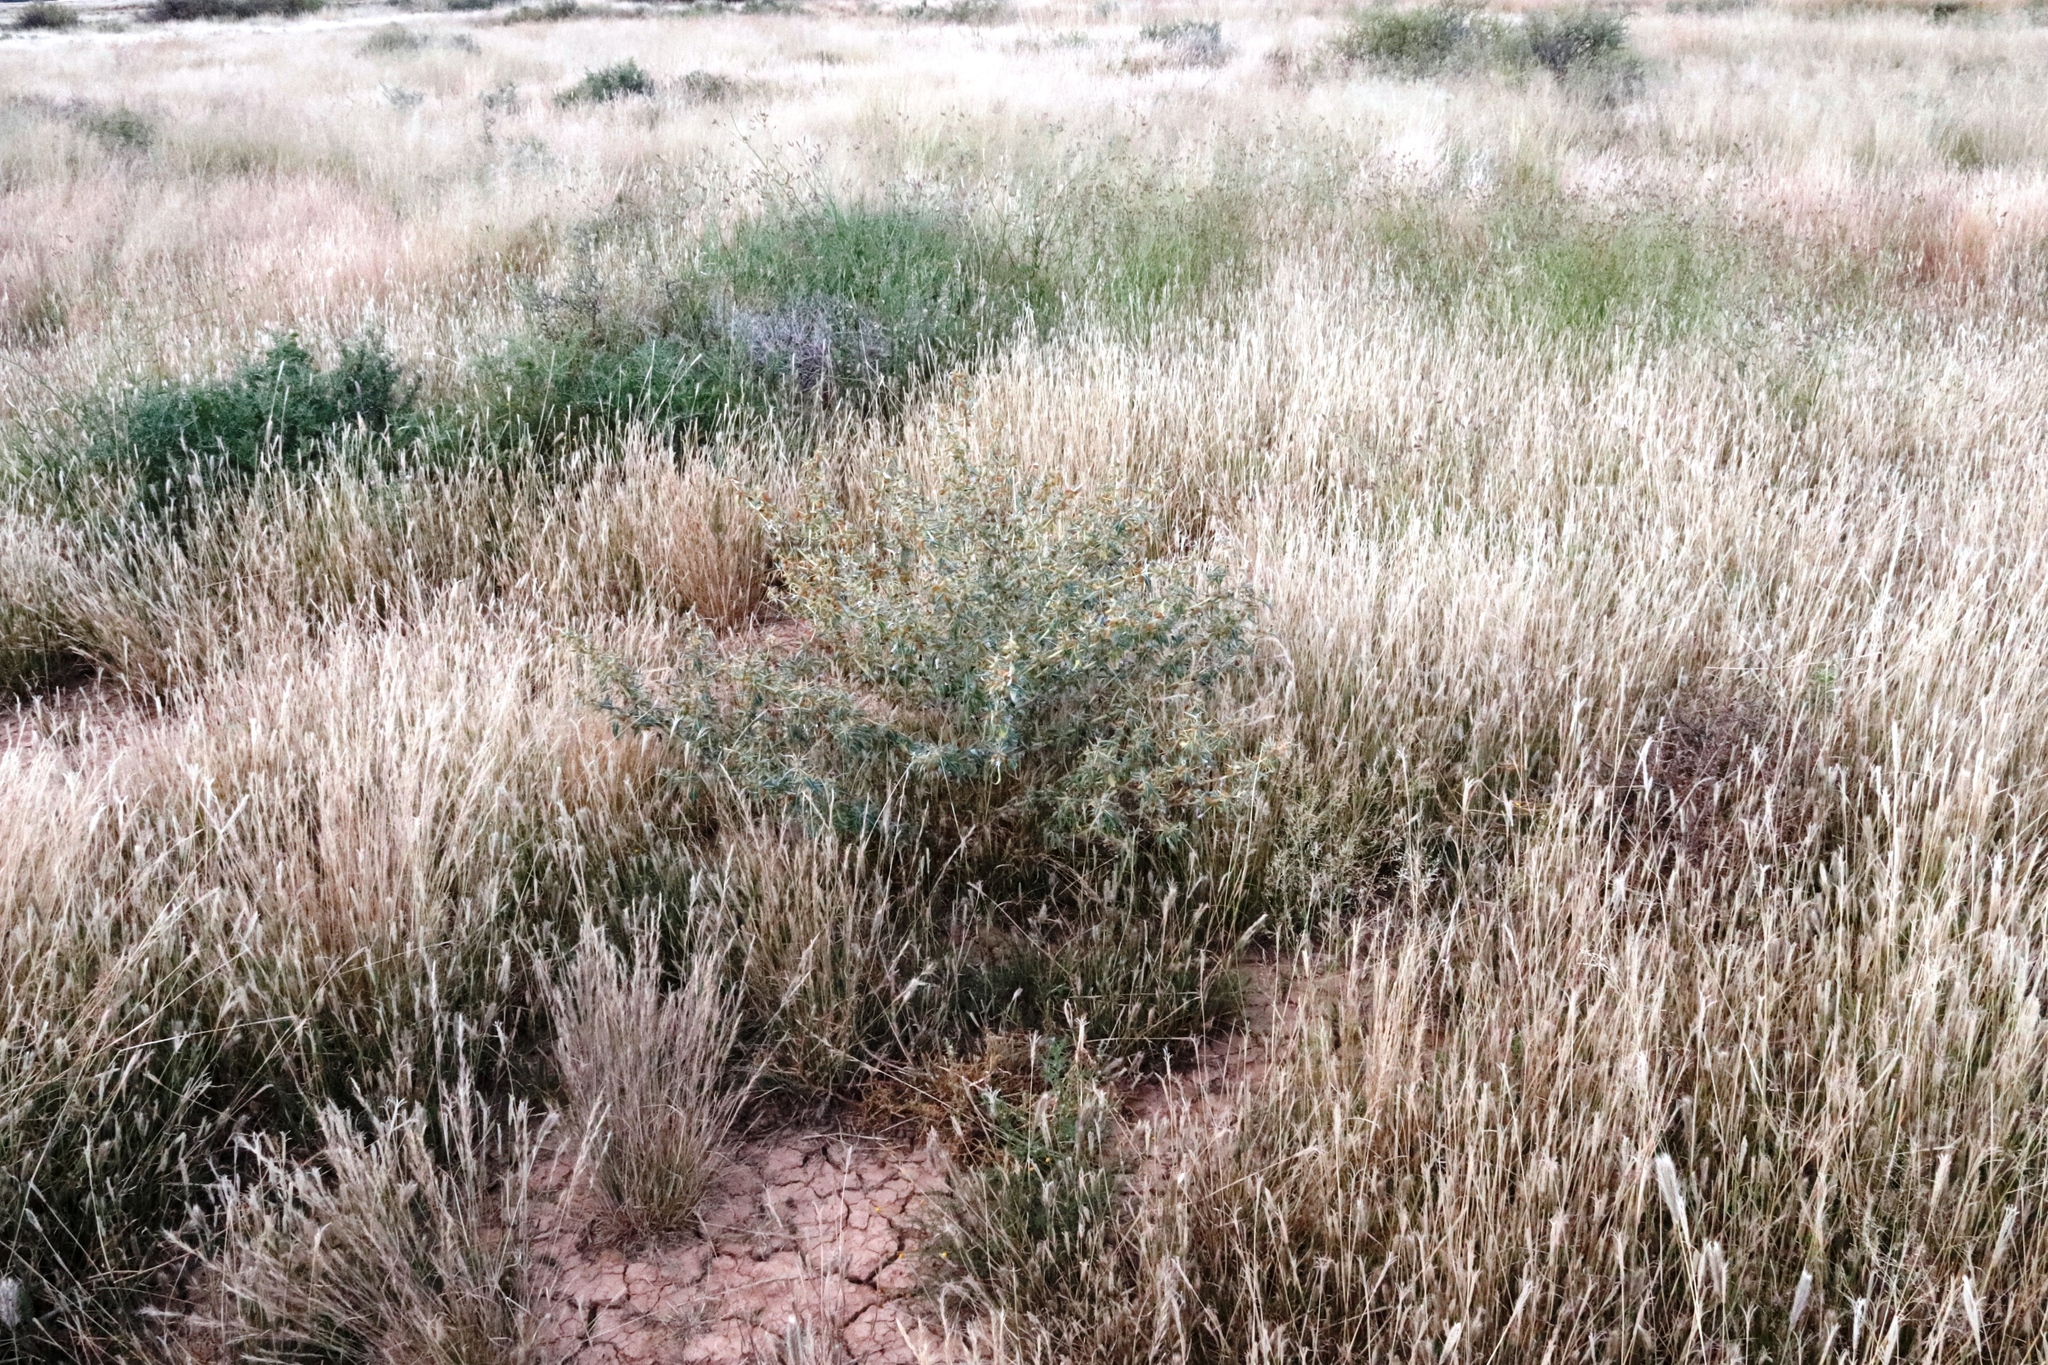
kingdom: Plantae
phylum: Tracheophyta
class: Magnoliopsida
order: Asterales
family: Asteraceae
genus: Xanthium
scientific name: Xanthium spinosum
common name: Spiny cocklebur
